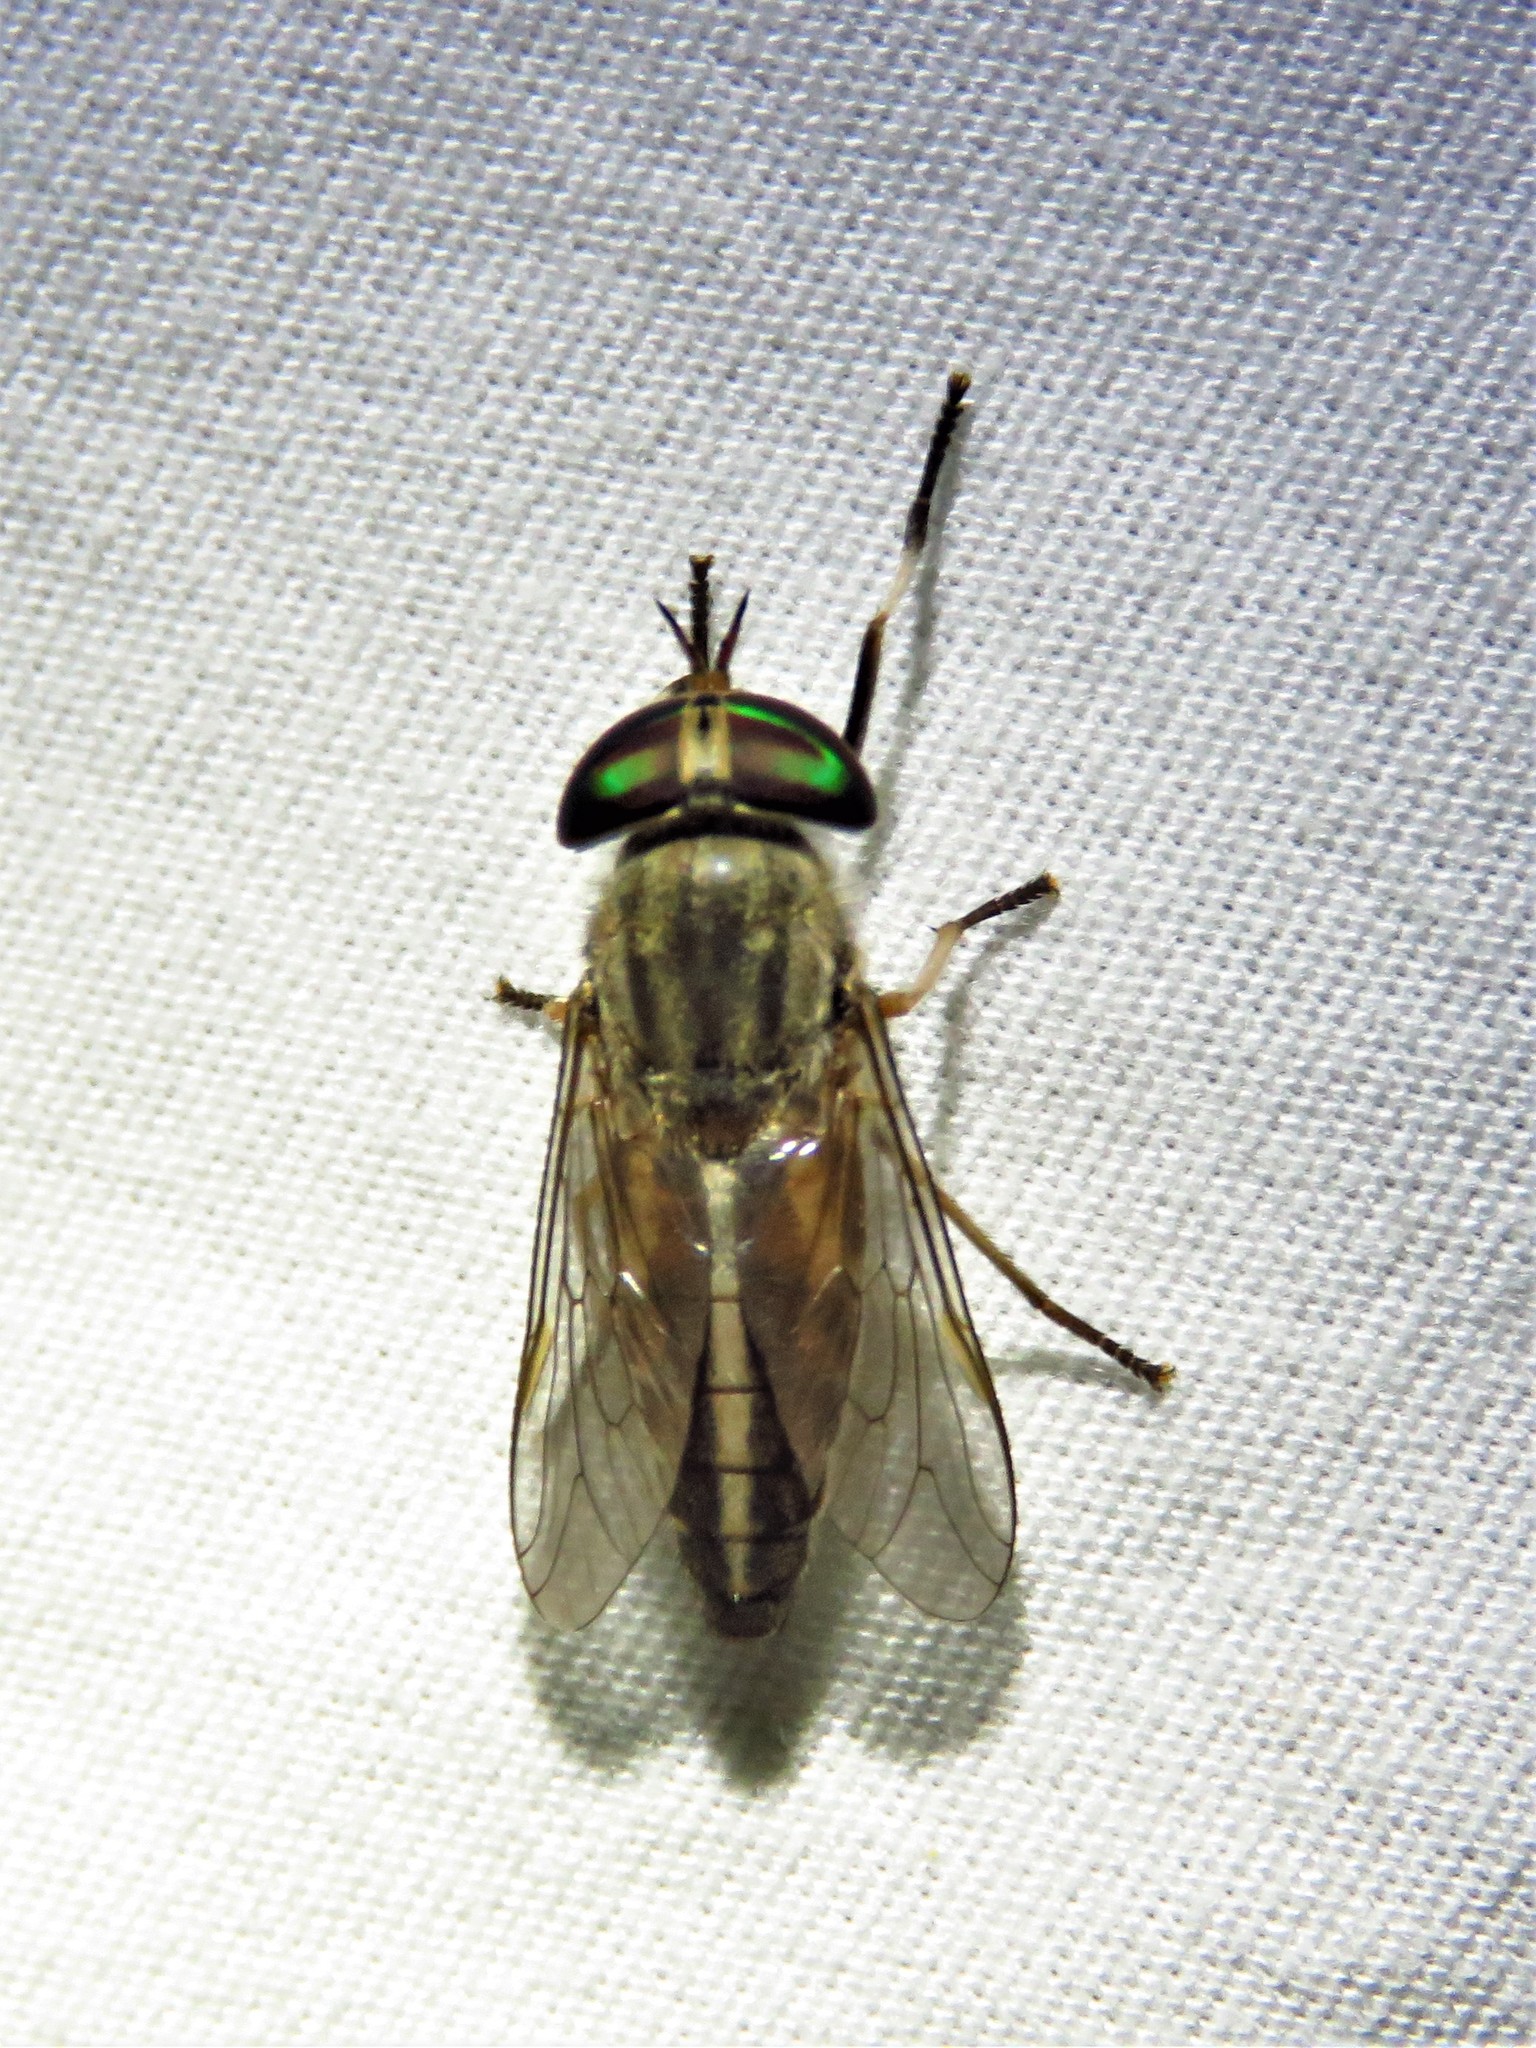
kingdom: Animalia
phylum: Arthropoda
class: Insecta
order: Diptera
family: Tabanidae
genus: Tabanus
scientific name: Tabanus subsimilis
